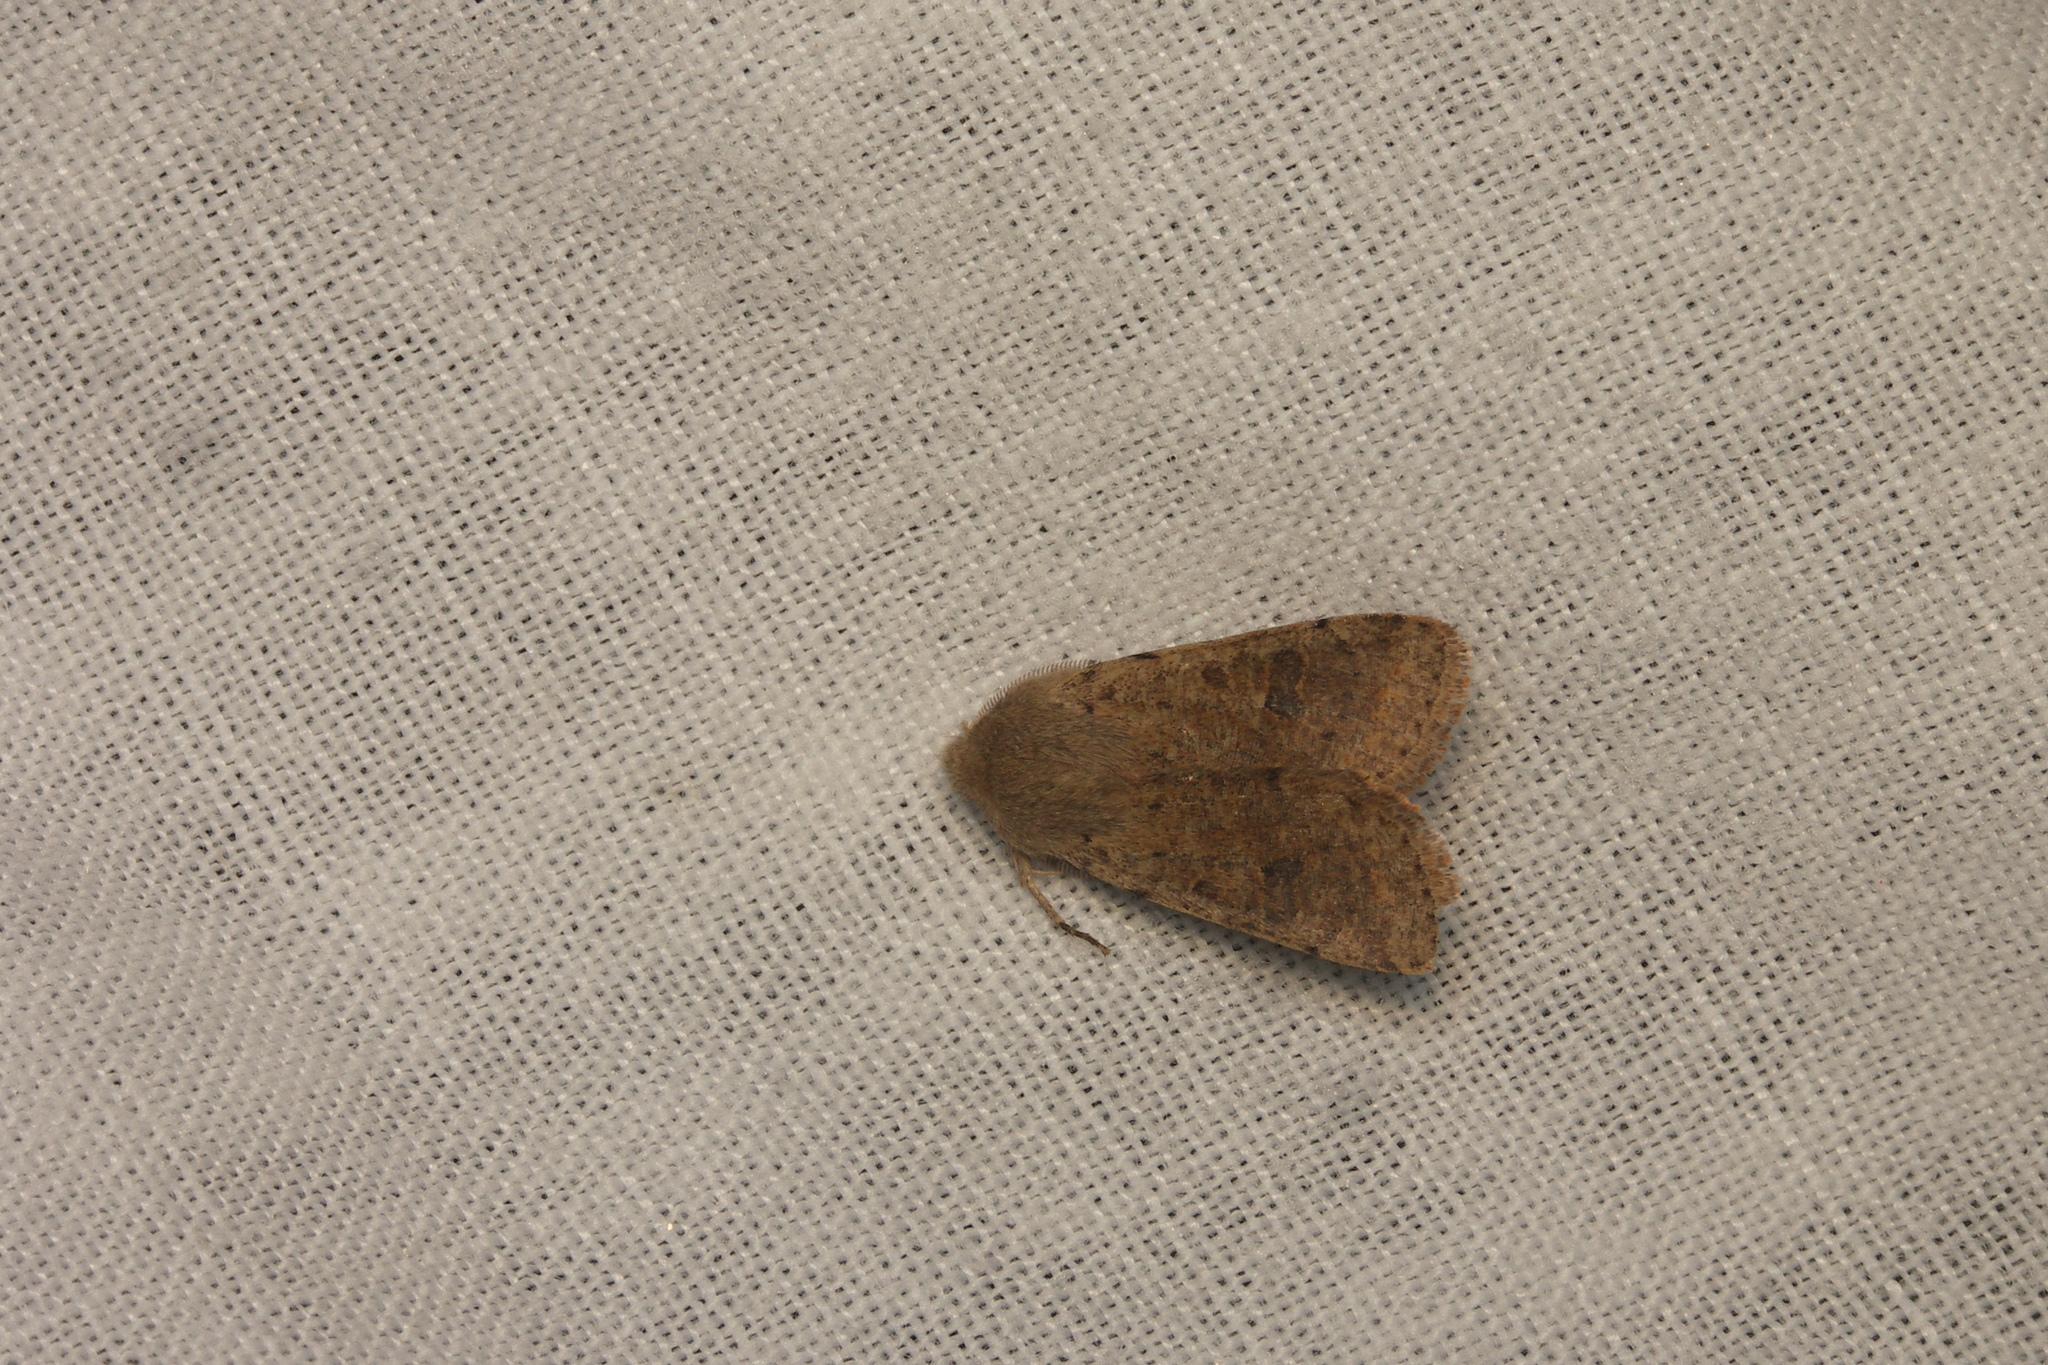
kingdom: Animalia
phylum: Arthropoda
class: Insecta
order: Lepidoptera
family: Noctuidae
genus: Orthosia
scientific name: Orthosia cruda
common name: Small quaker
